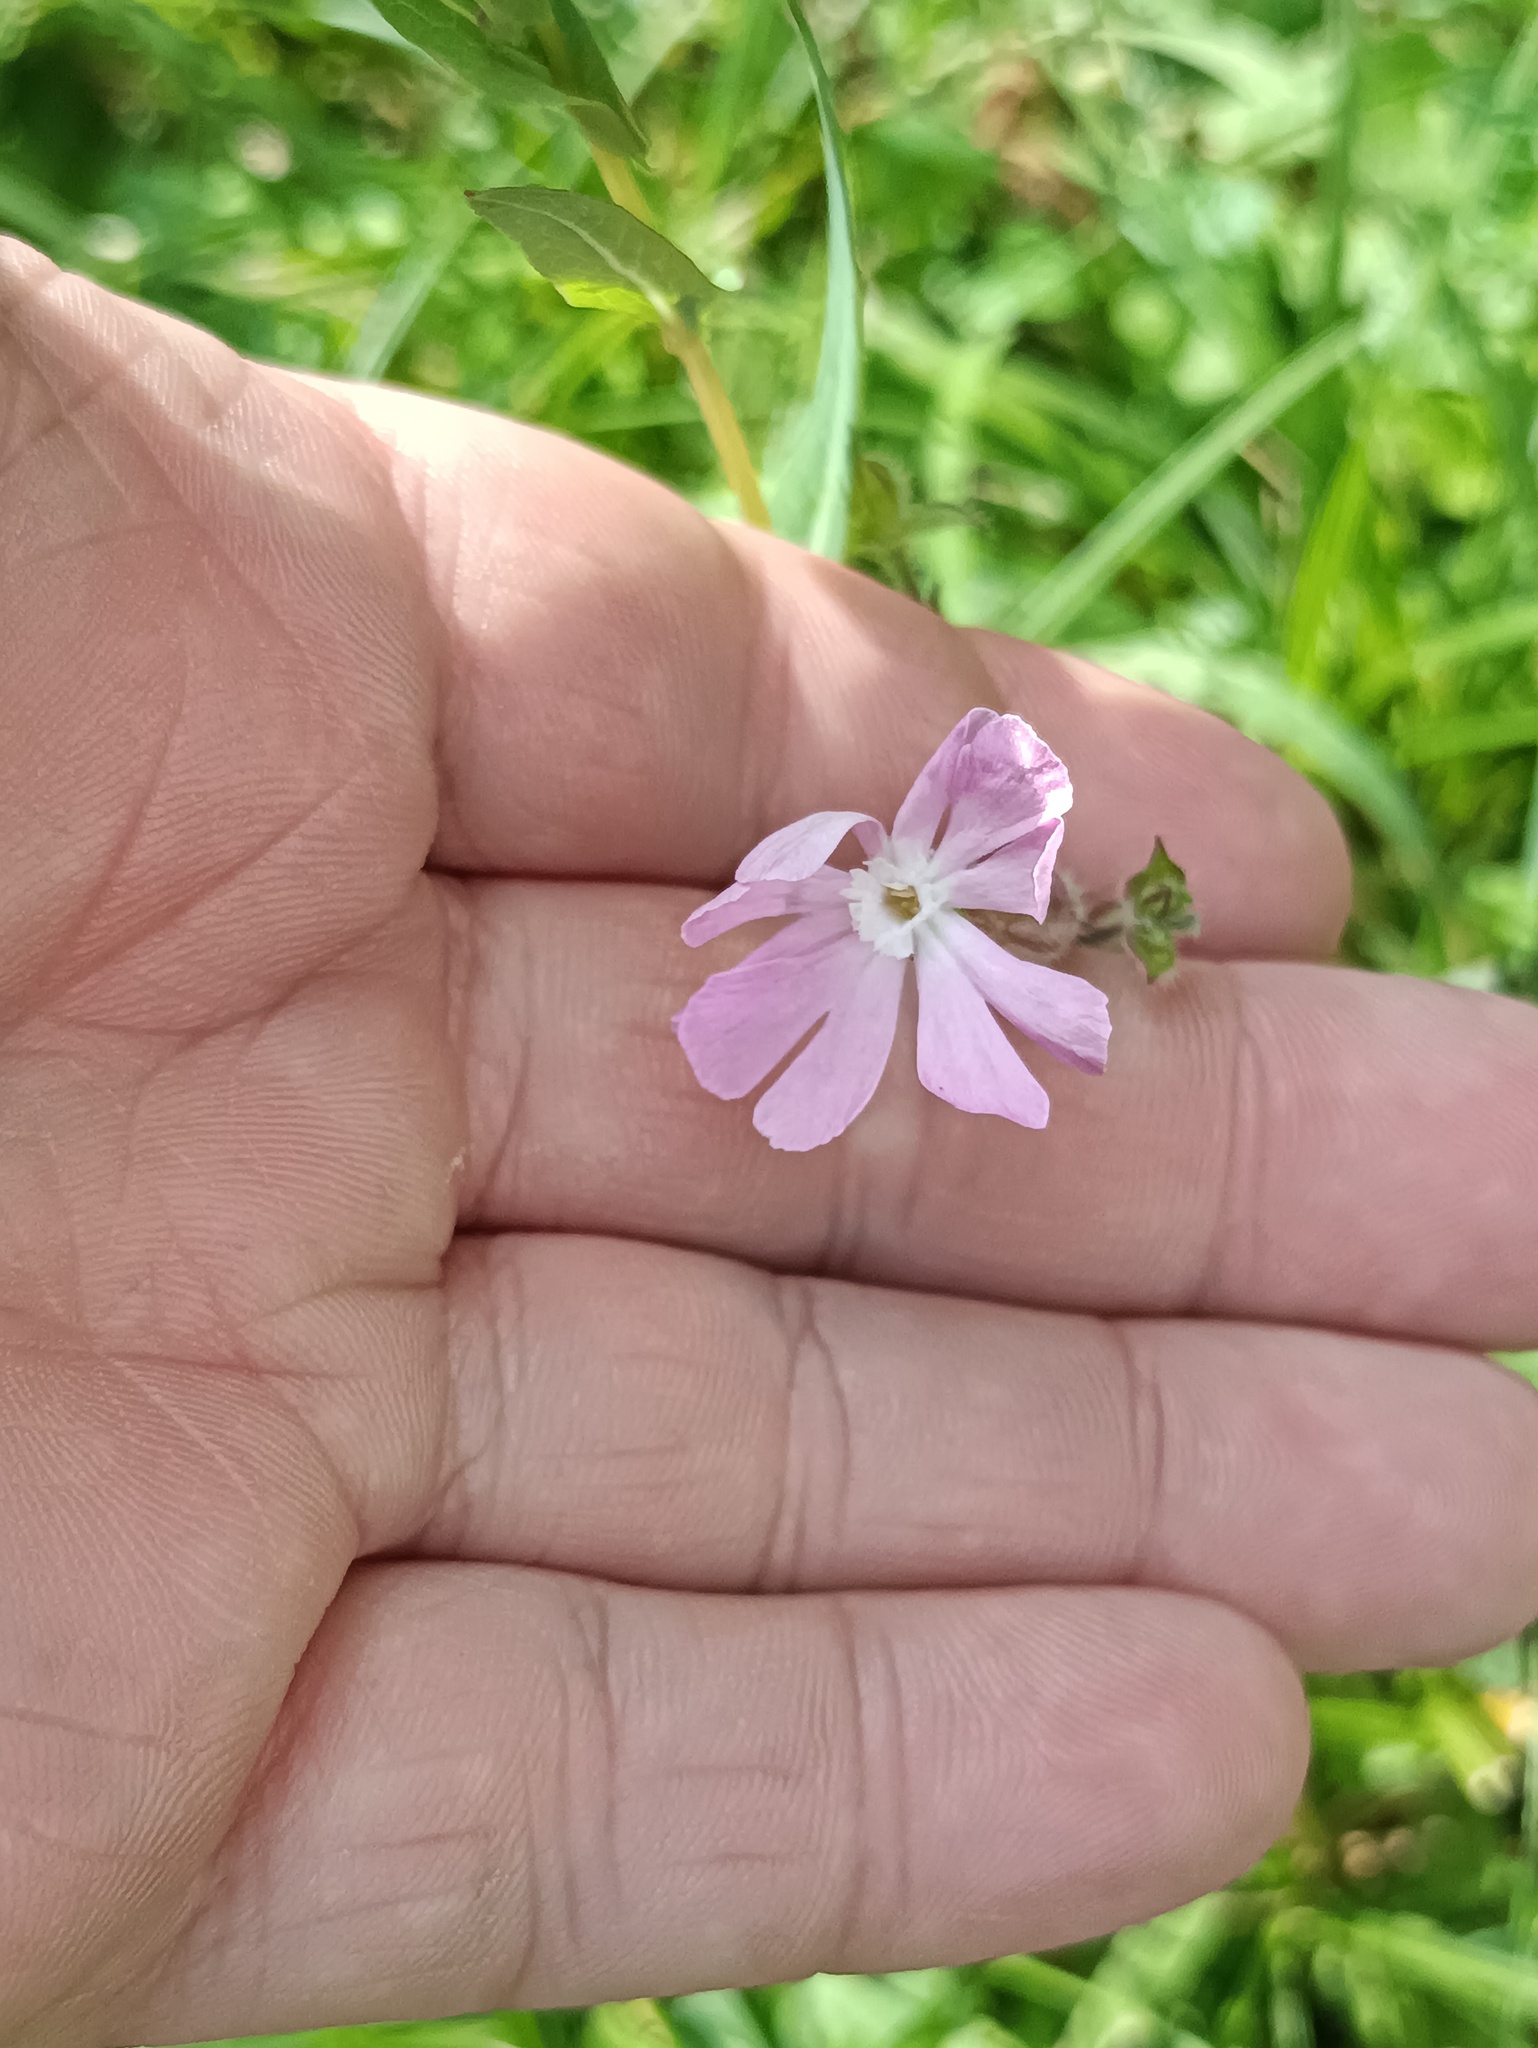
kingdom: Plantae
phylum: Tracheophyta
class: Magnoliopsida
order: Caryophyllales
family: Caryophyllaceae
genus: Silene
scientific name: Silene dioica
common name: Red campion
